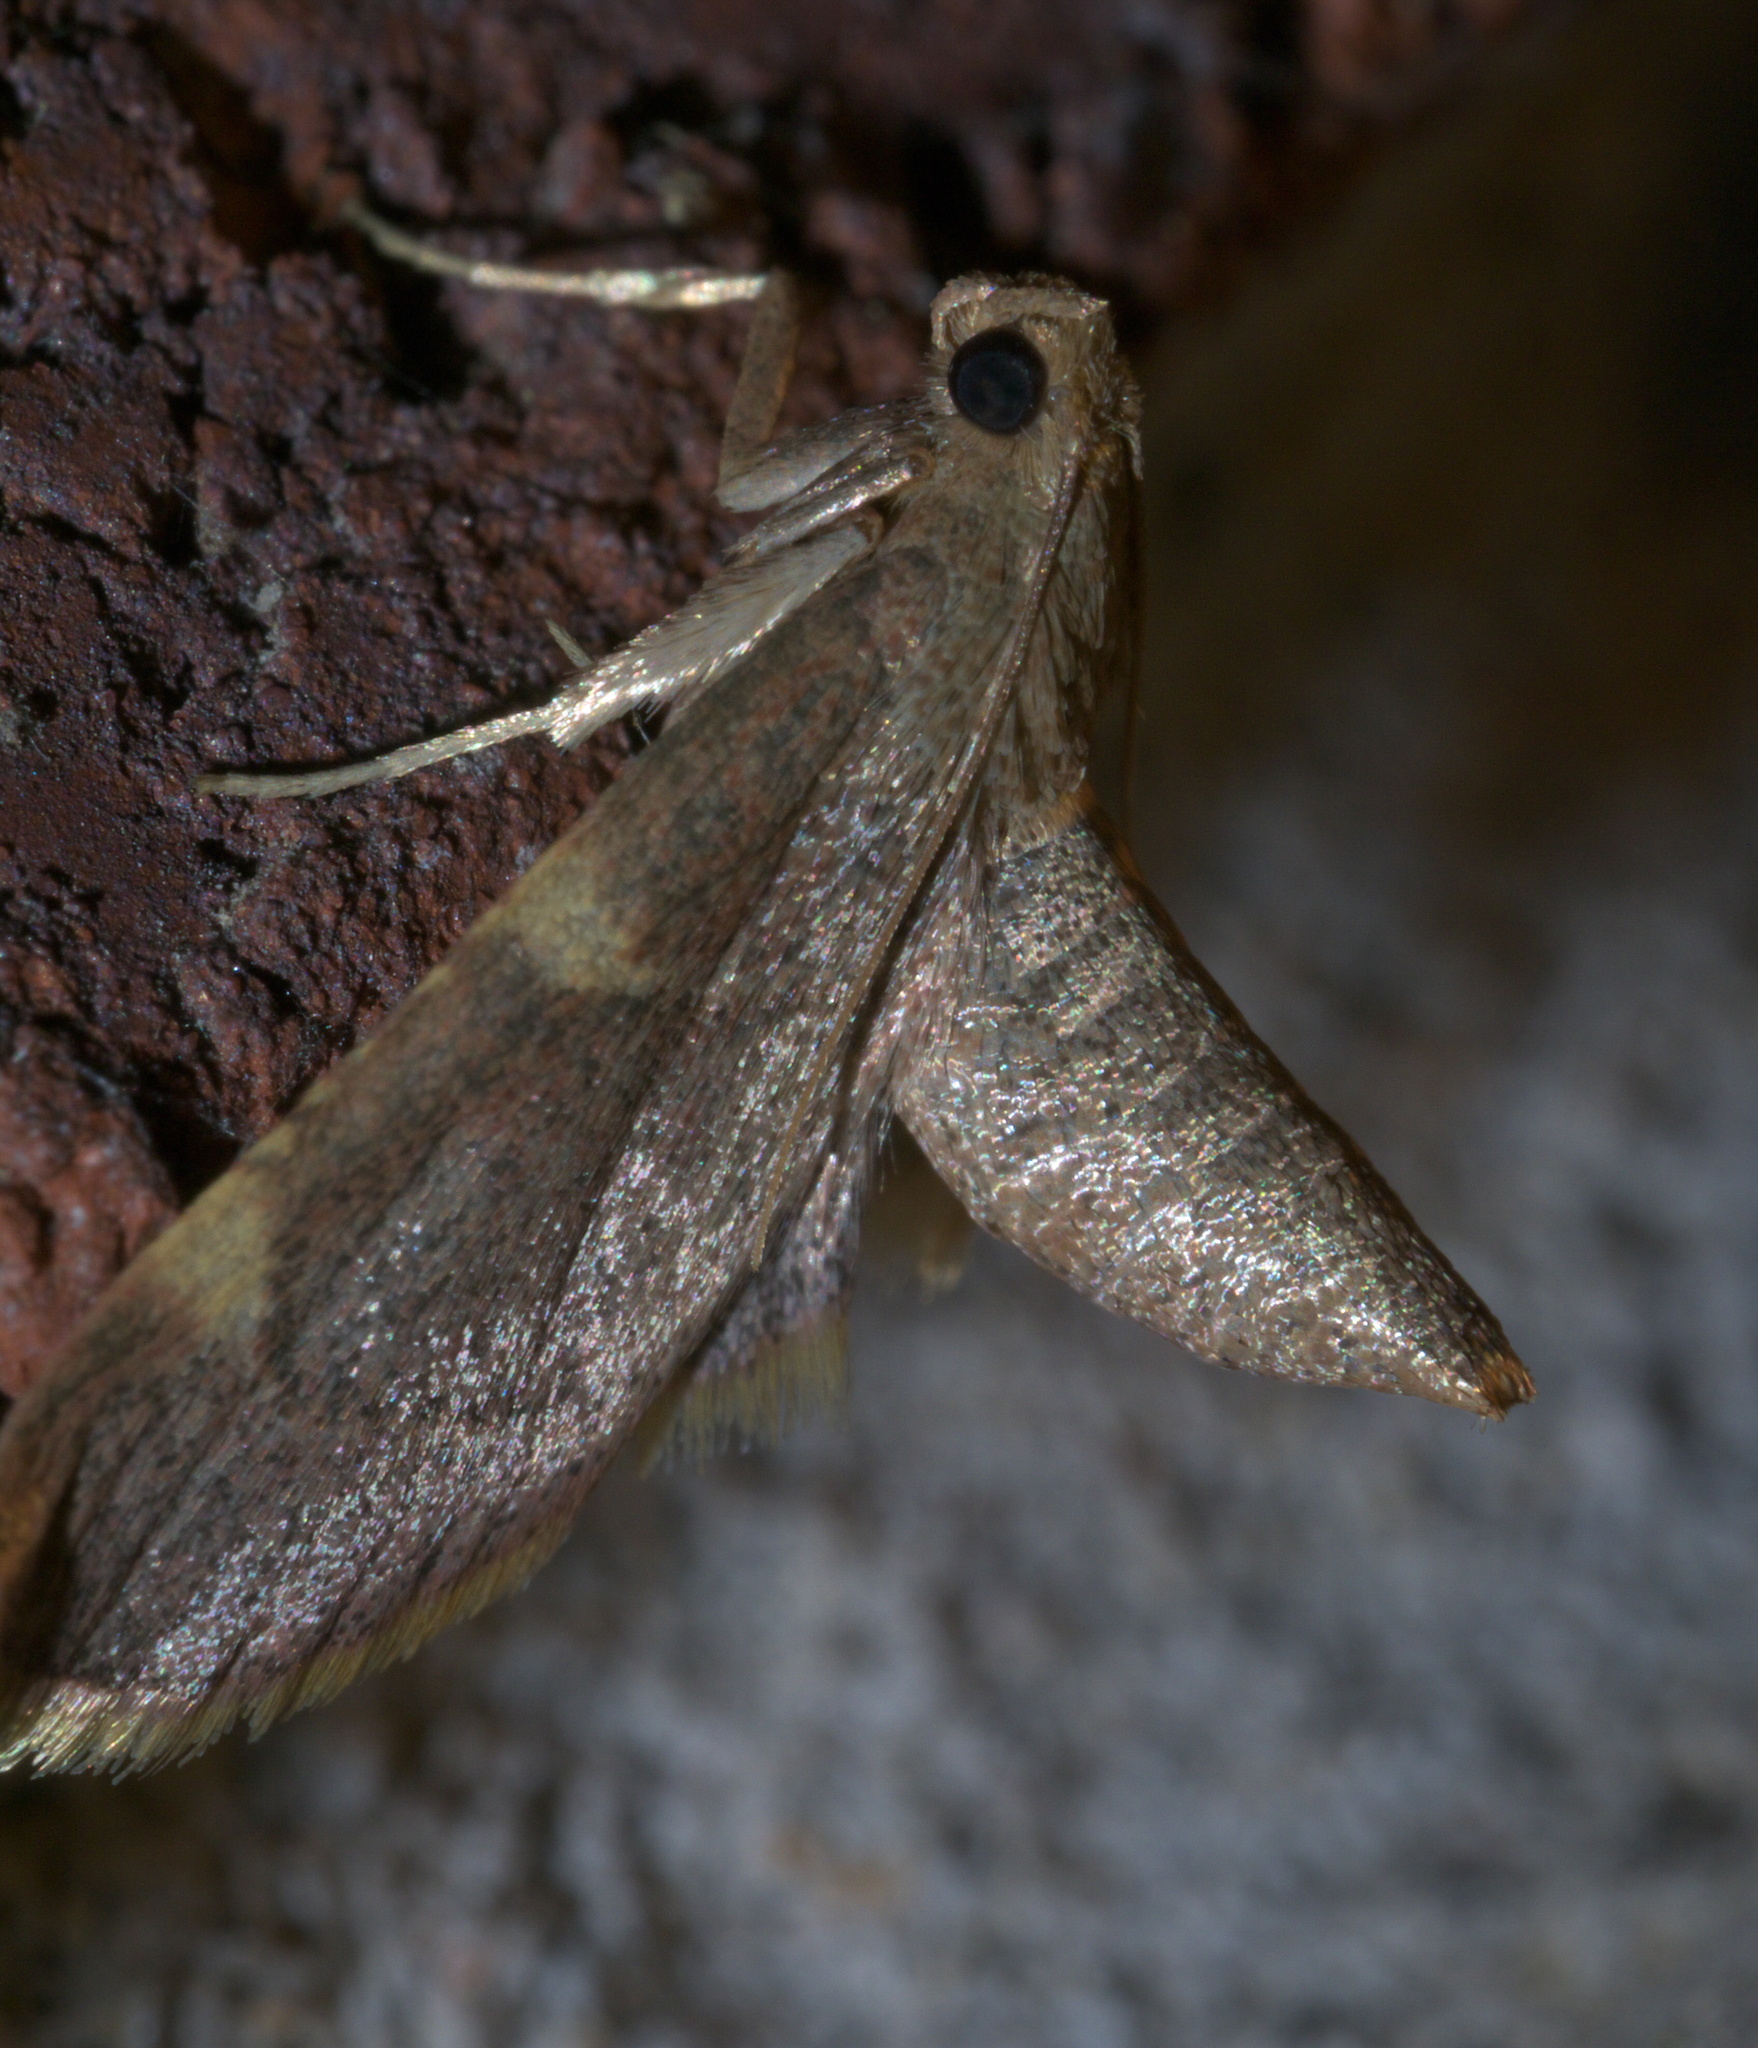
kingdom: Animalia
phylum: Arthropoda
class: Insecta
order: Lepidoptera
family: Pyralidae
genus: Hypsopygia
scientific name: Hypsopygia olinalis
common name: Yellow-fringed dolichomia moth
